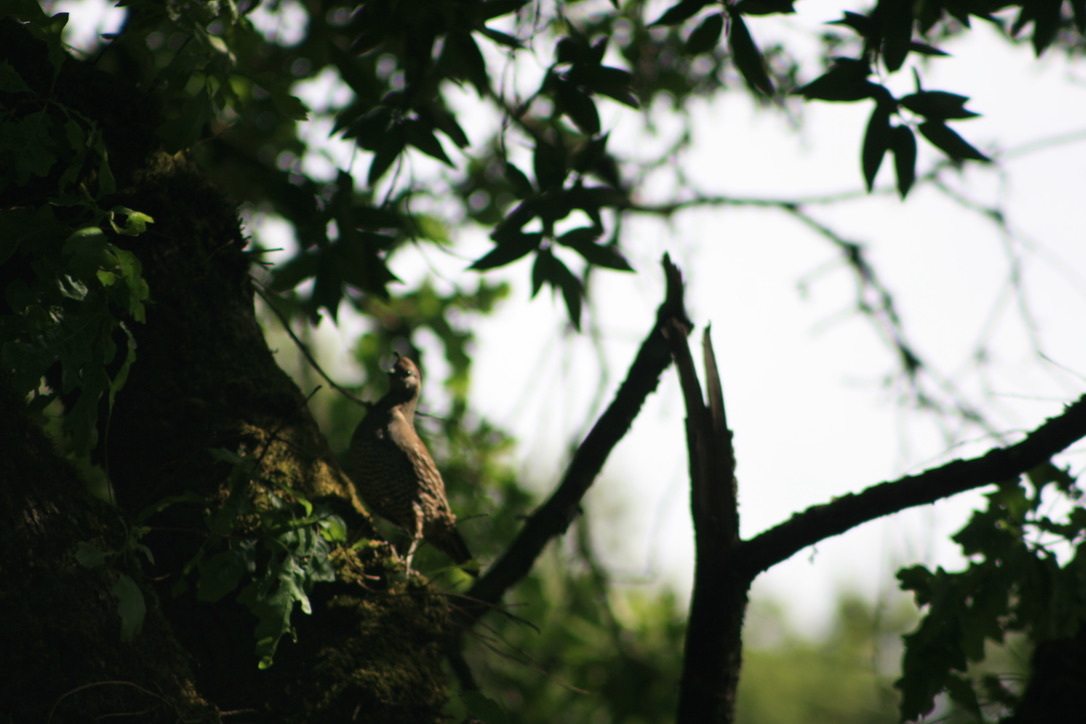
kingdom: Animalia
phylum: Chordata
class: Aves
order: Galliformes
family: Odontophoridae
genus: Callipepla
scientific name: Callipepla californica
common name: California quail
